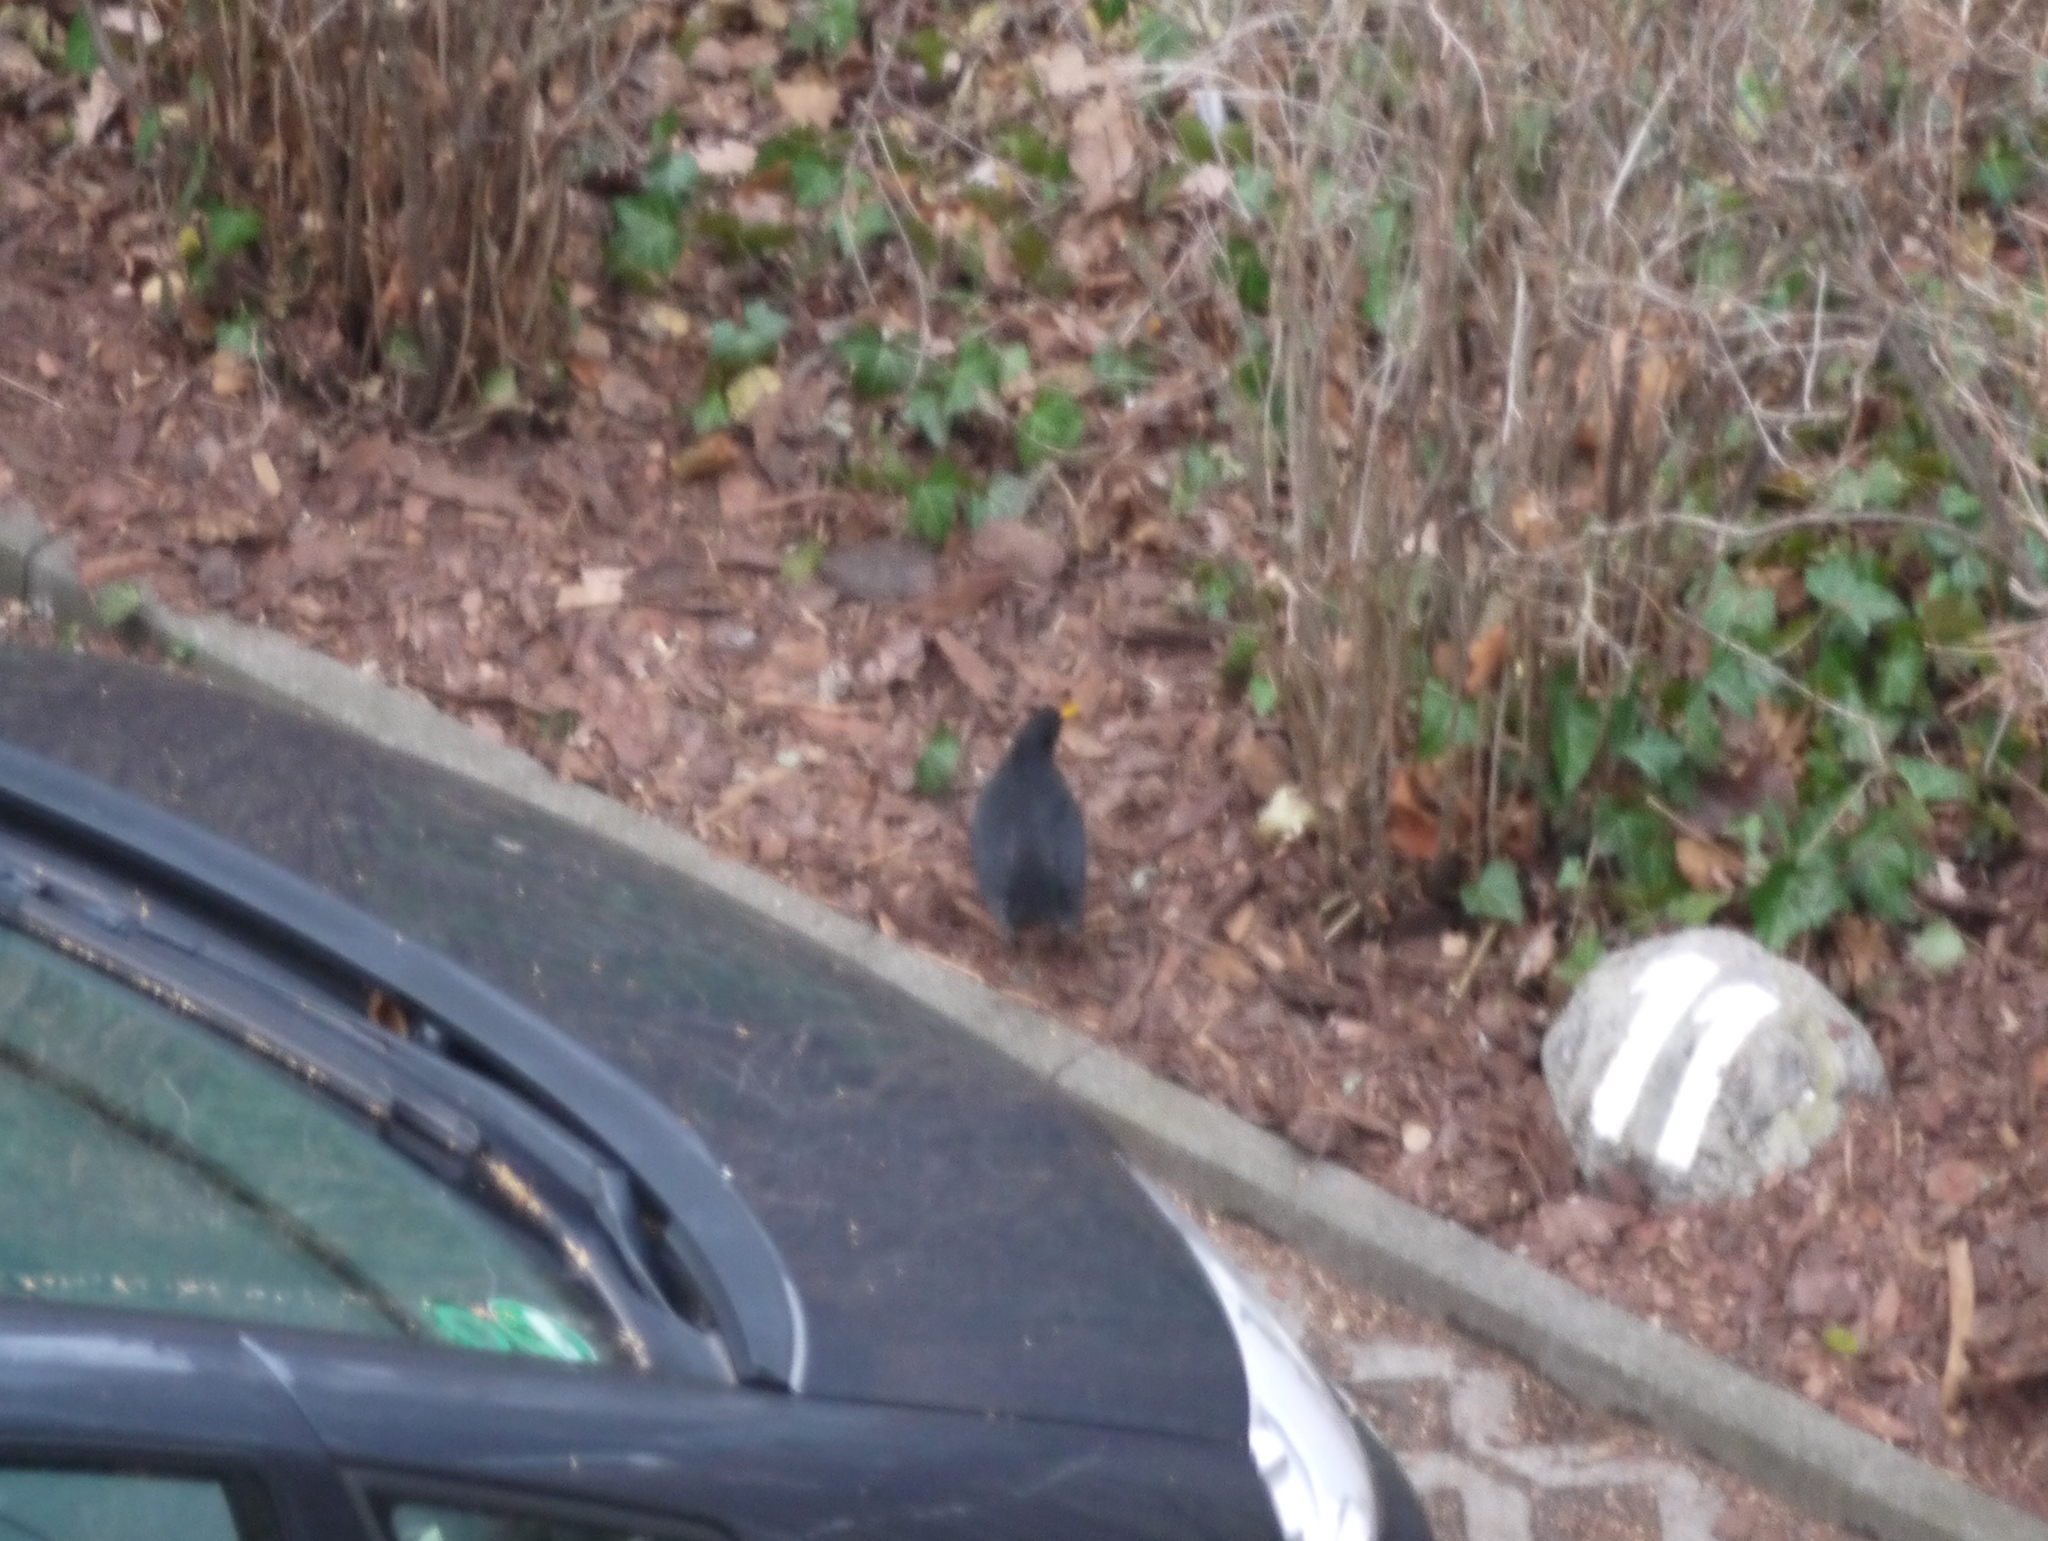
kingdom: Animalia
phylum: Chordata
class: Aves
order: Passeriformes
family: Turdidae
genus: Turdus
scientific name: Turdus merula
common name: Common blackbird
